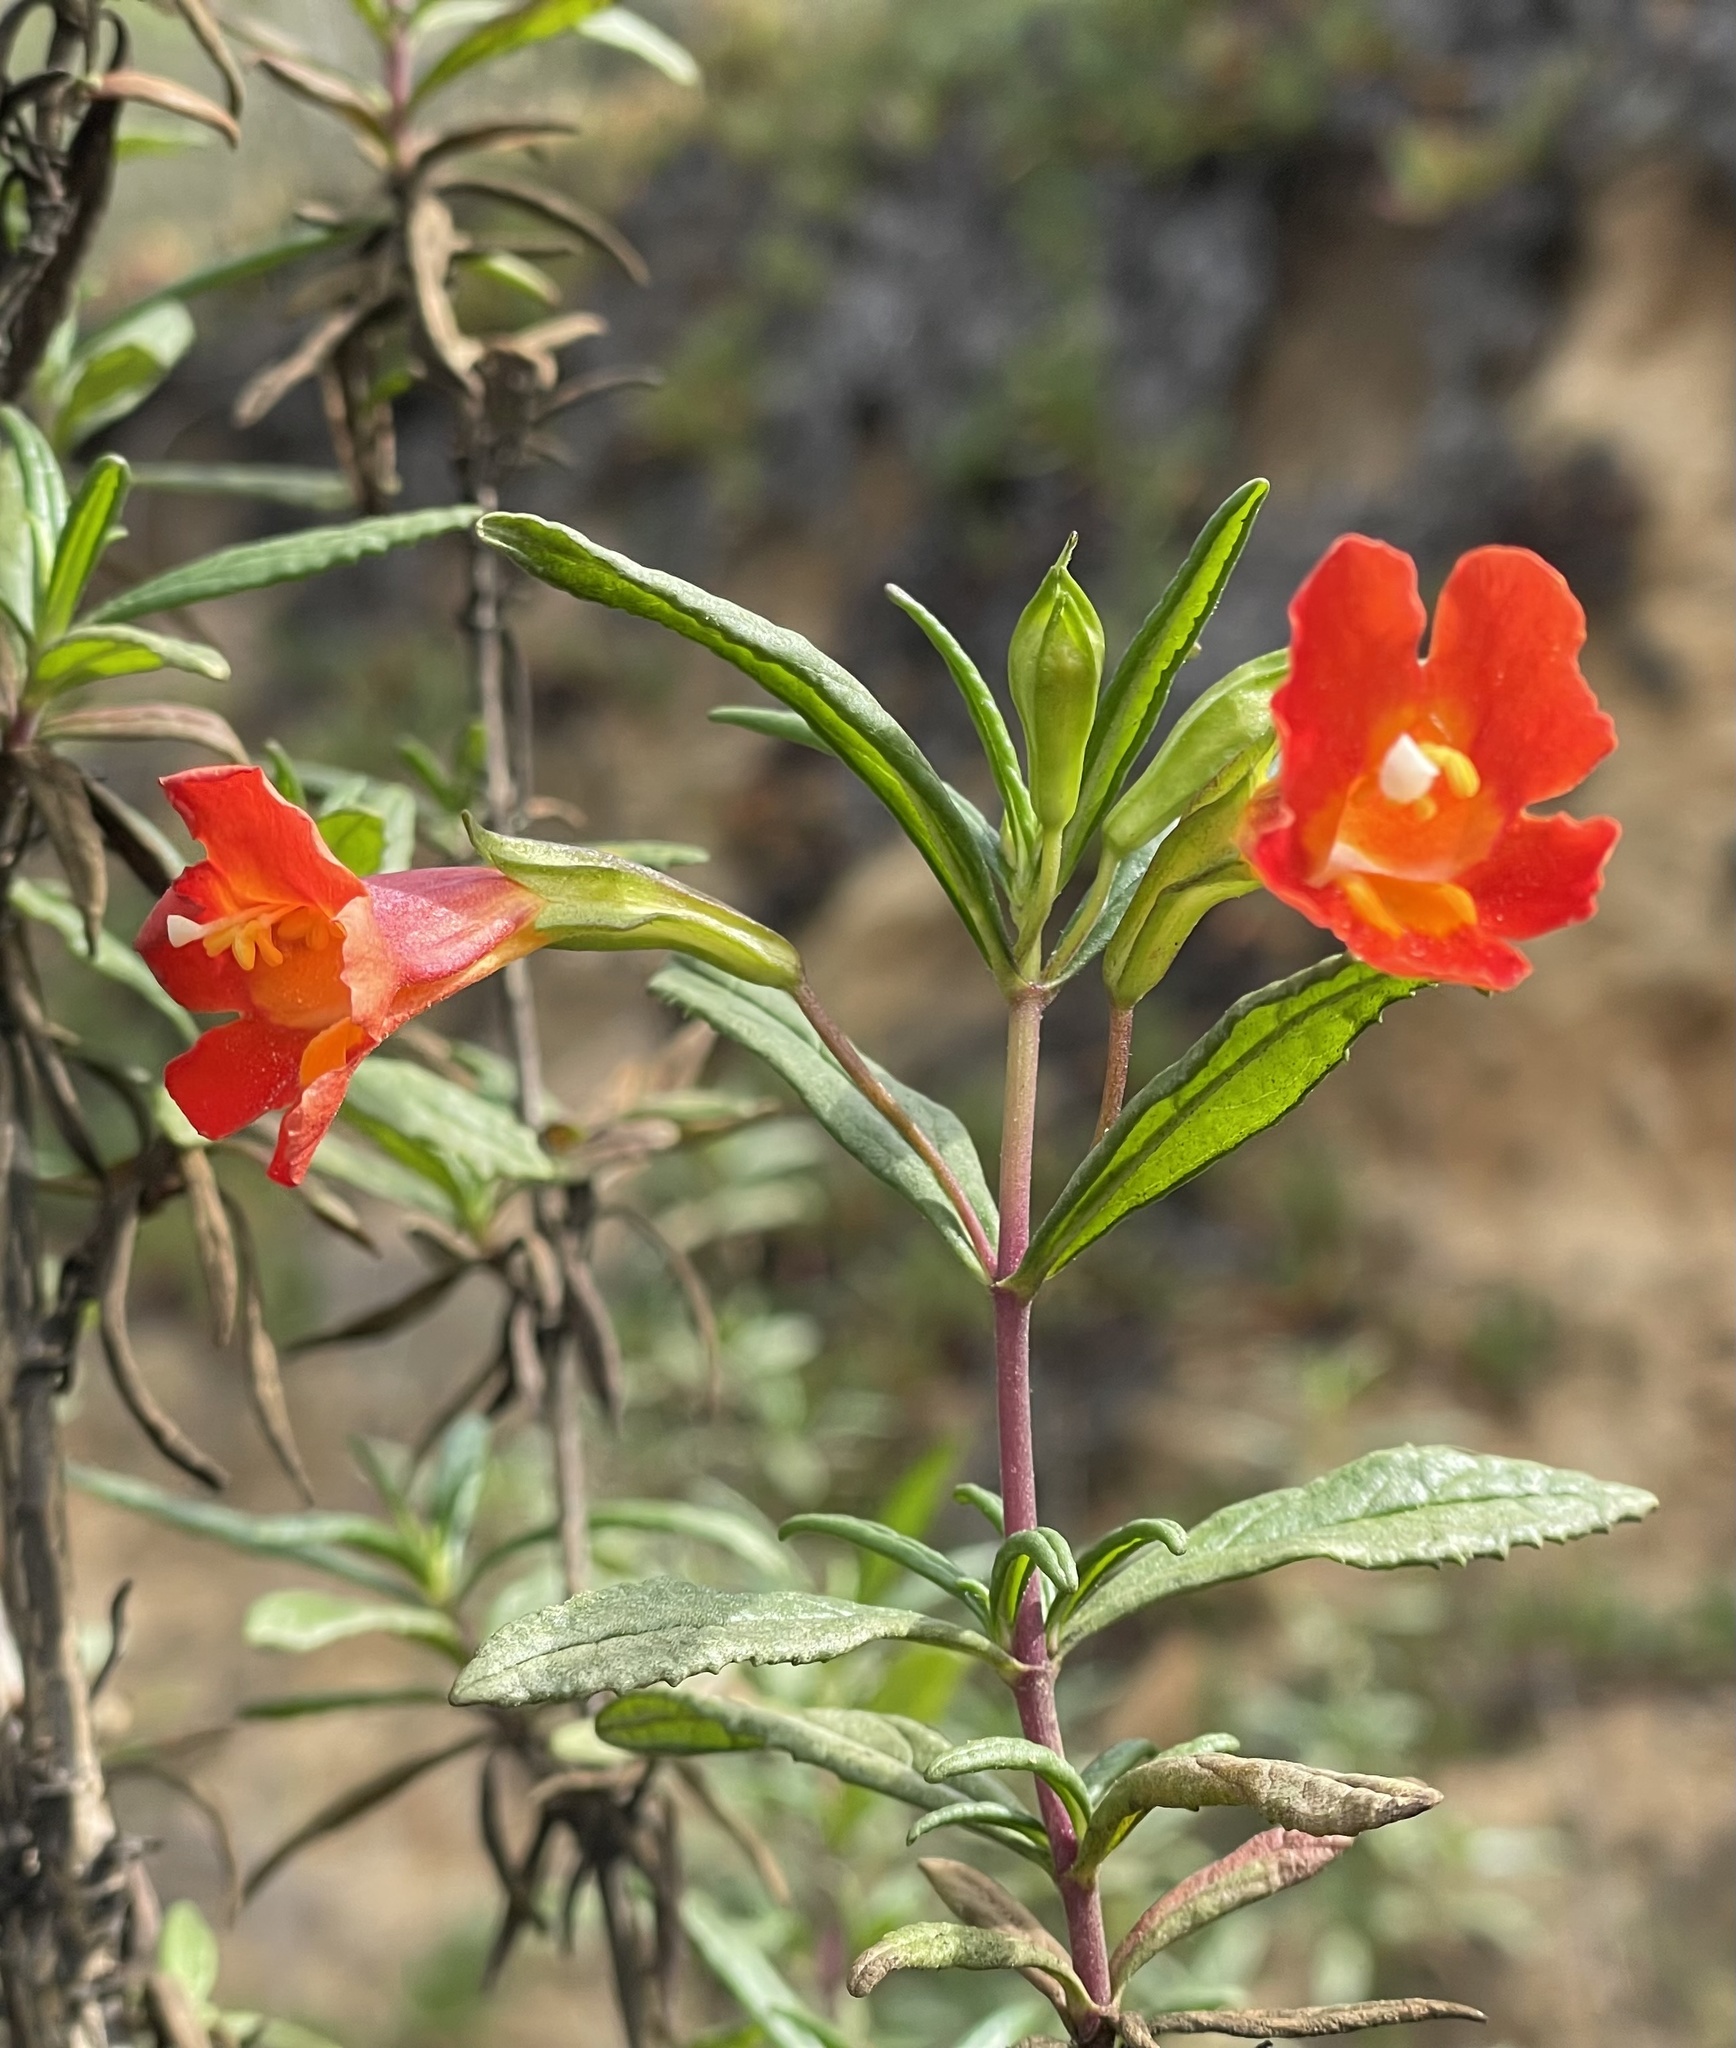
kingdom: Plantae
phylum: Tracheophyta
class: Magnoliopsida
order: Lamiales
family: Phrymaceae
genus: Diplacus
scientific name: Diplacus puniceus
